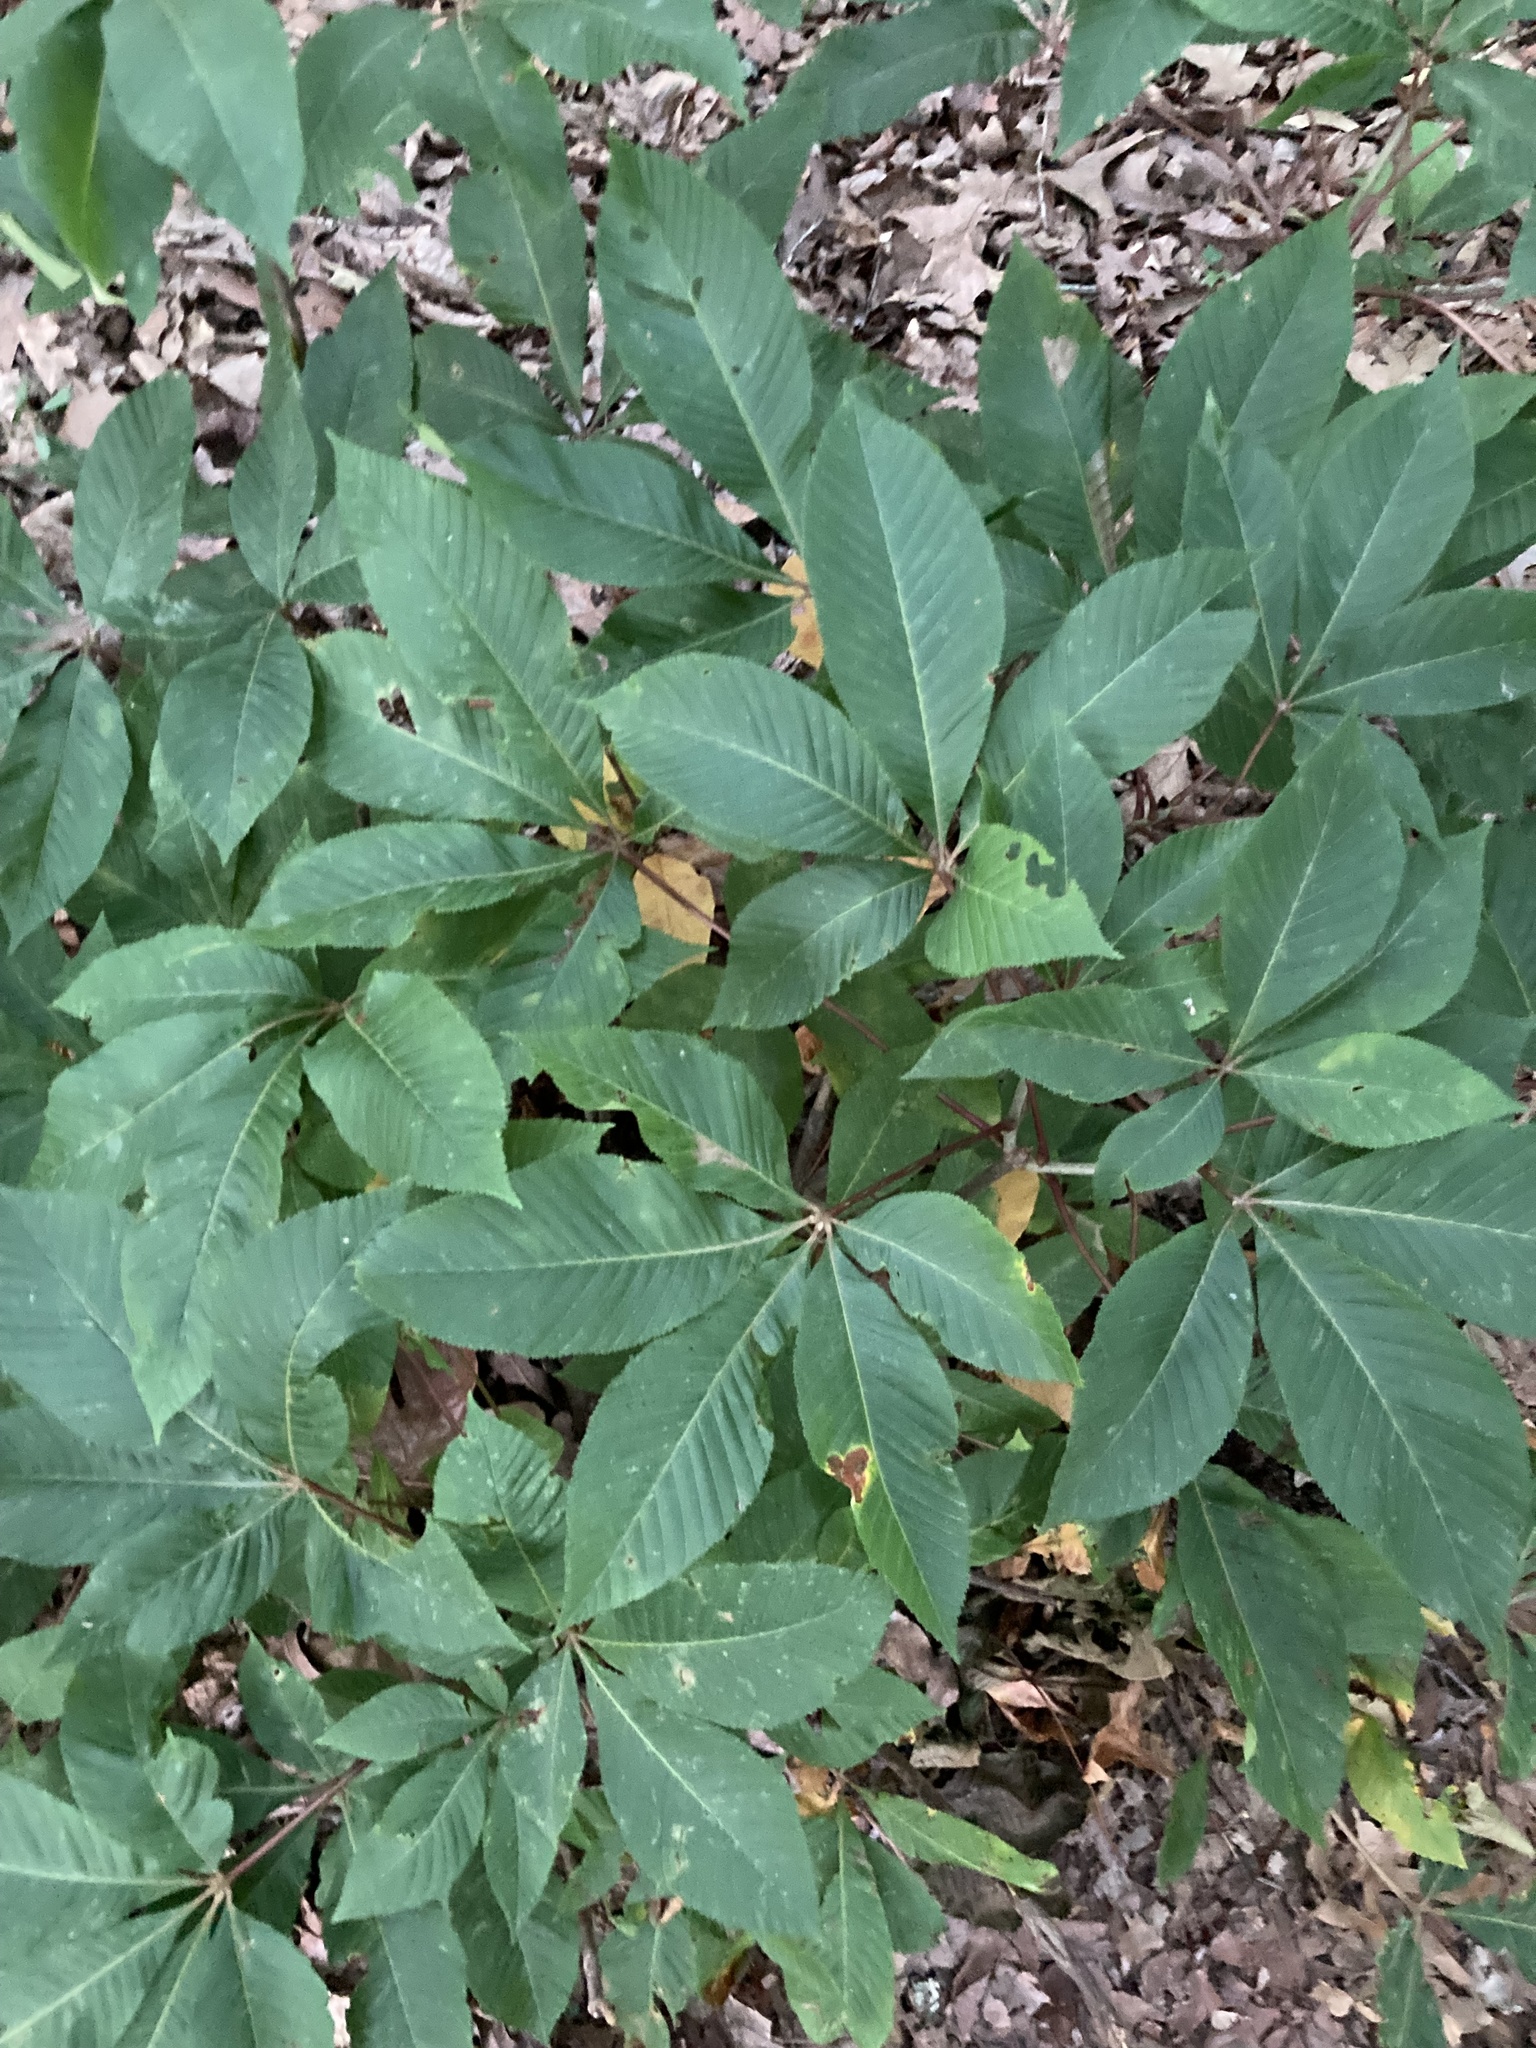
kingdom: Plantae
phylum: Tracheophyta
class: Magnoliopsida
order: Sapindales
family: Sapindaceae
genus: Aesculus
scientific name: Aesculus pavia
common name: Red buckeye
